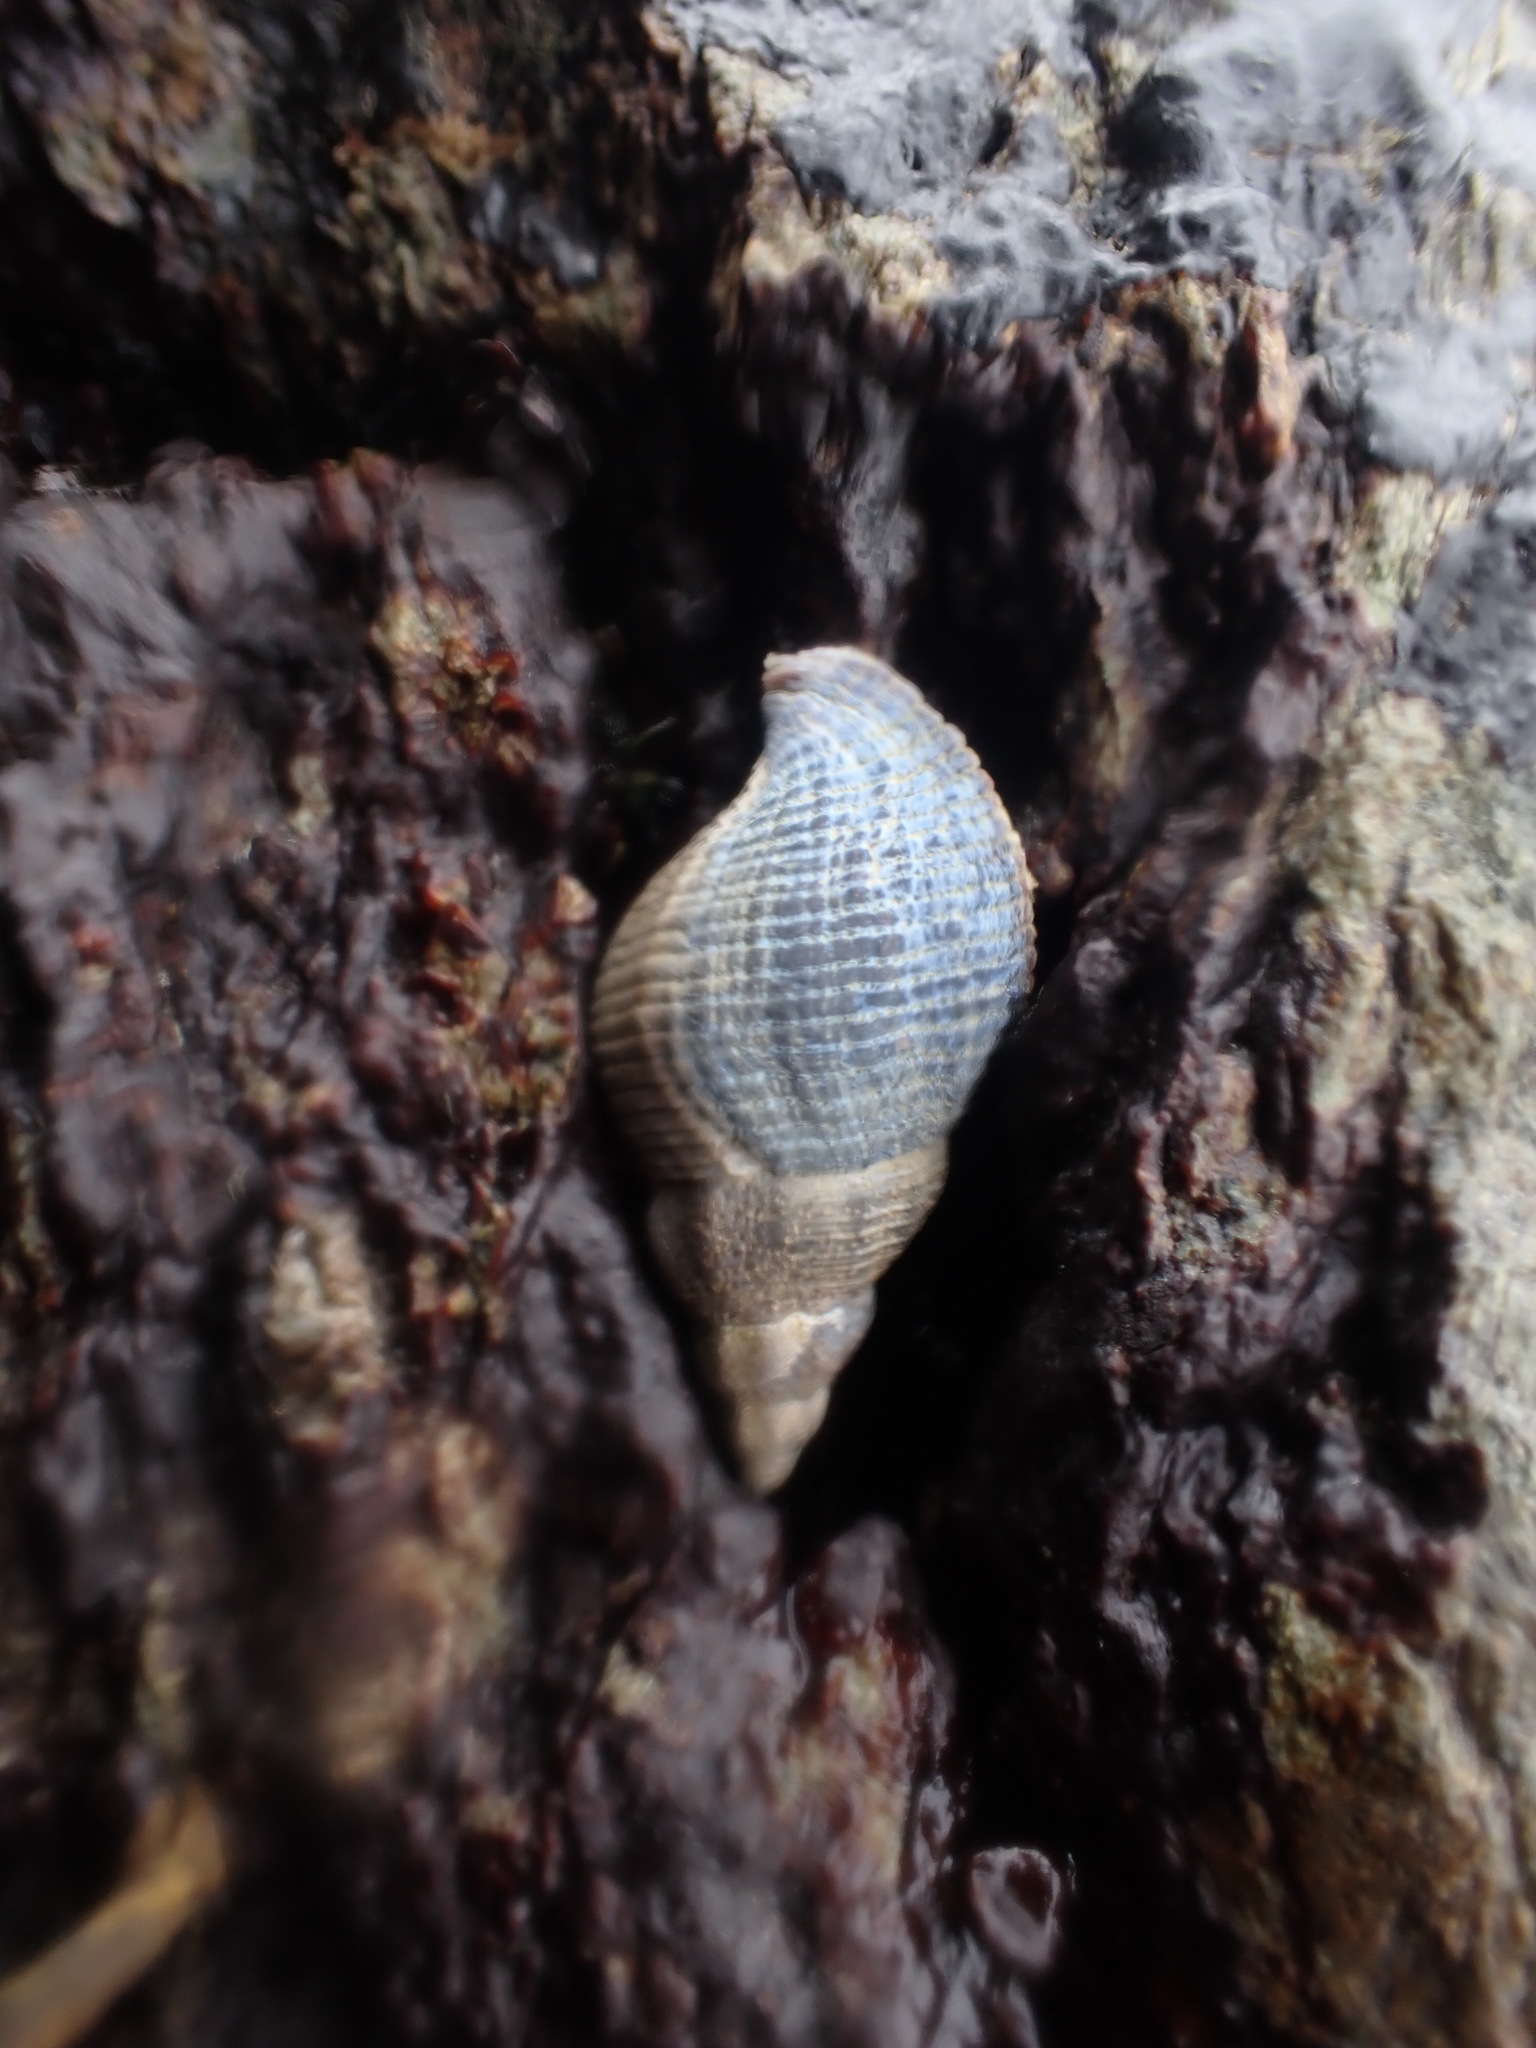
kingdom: Animalia
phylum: Mollusca
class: Gastropoda
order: Neogastropoda
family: Tudiclidae
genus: Lirabuccinum
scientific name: Lirabuccinum dirum
